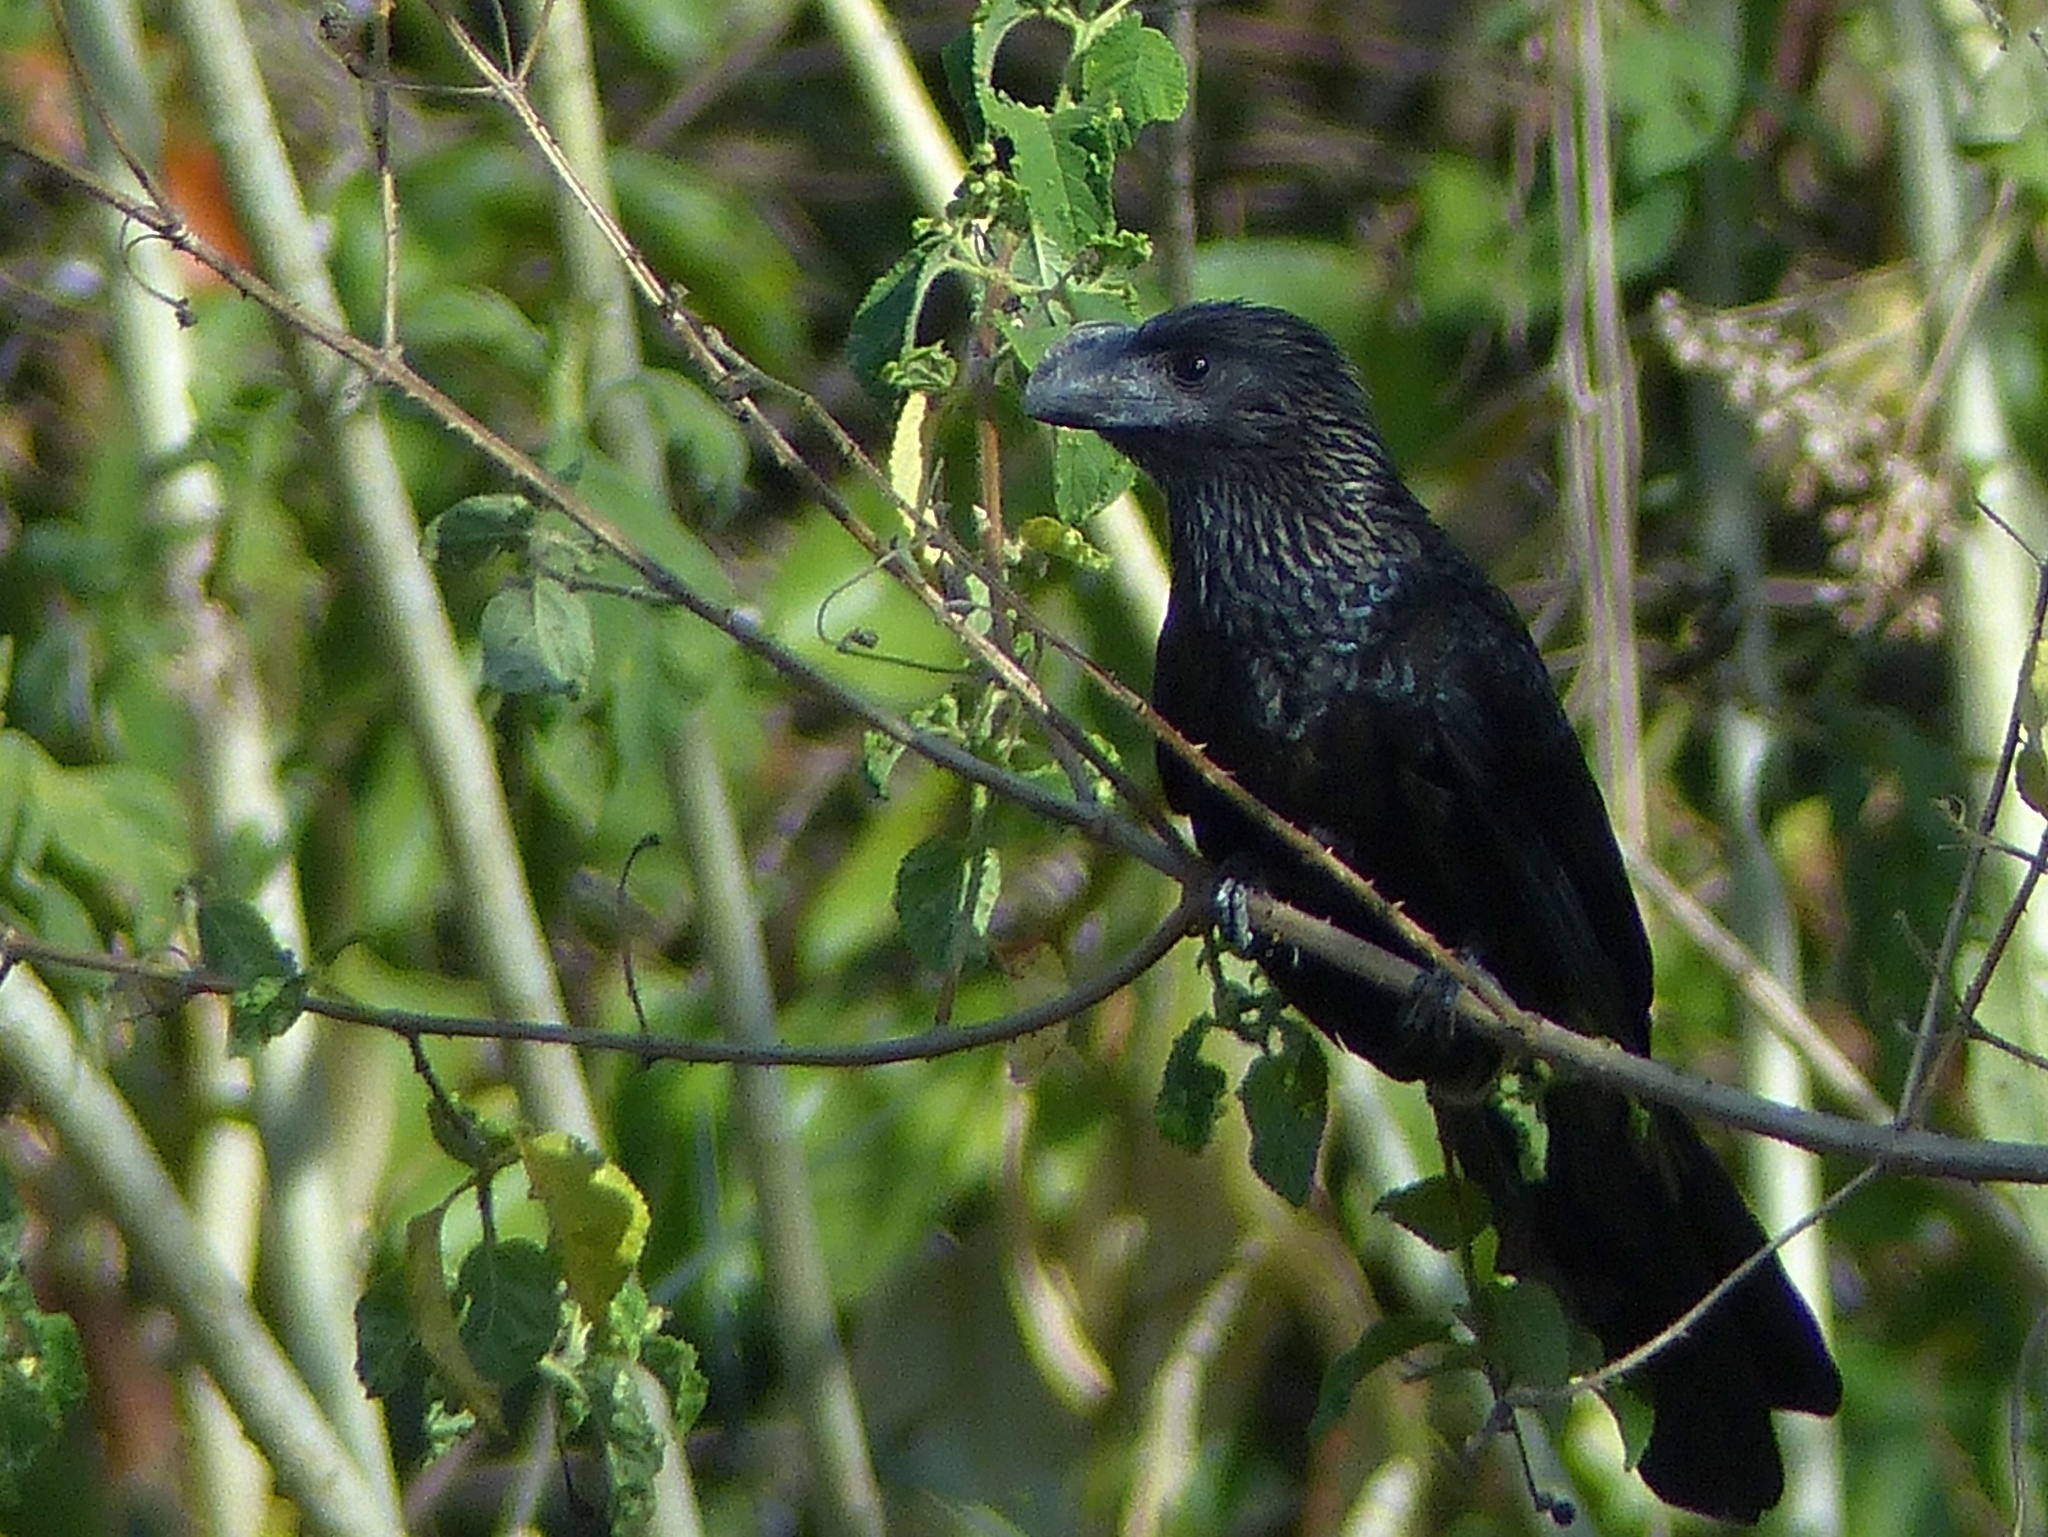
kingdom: Animalia
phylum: Chordata
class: Aves
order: Cuculiformes
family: Cuculidae
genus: Crotophaga
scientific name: Crotophaga ani
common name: Smooth-billed ani
